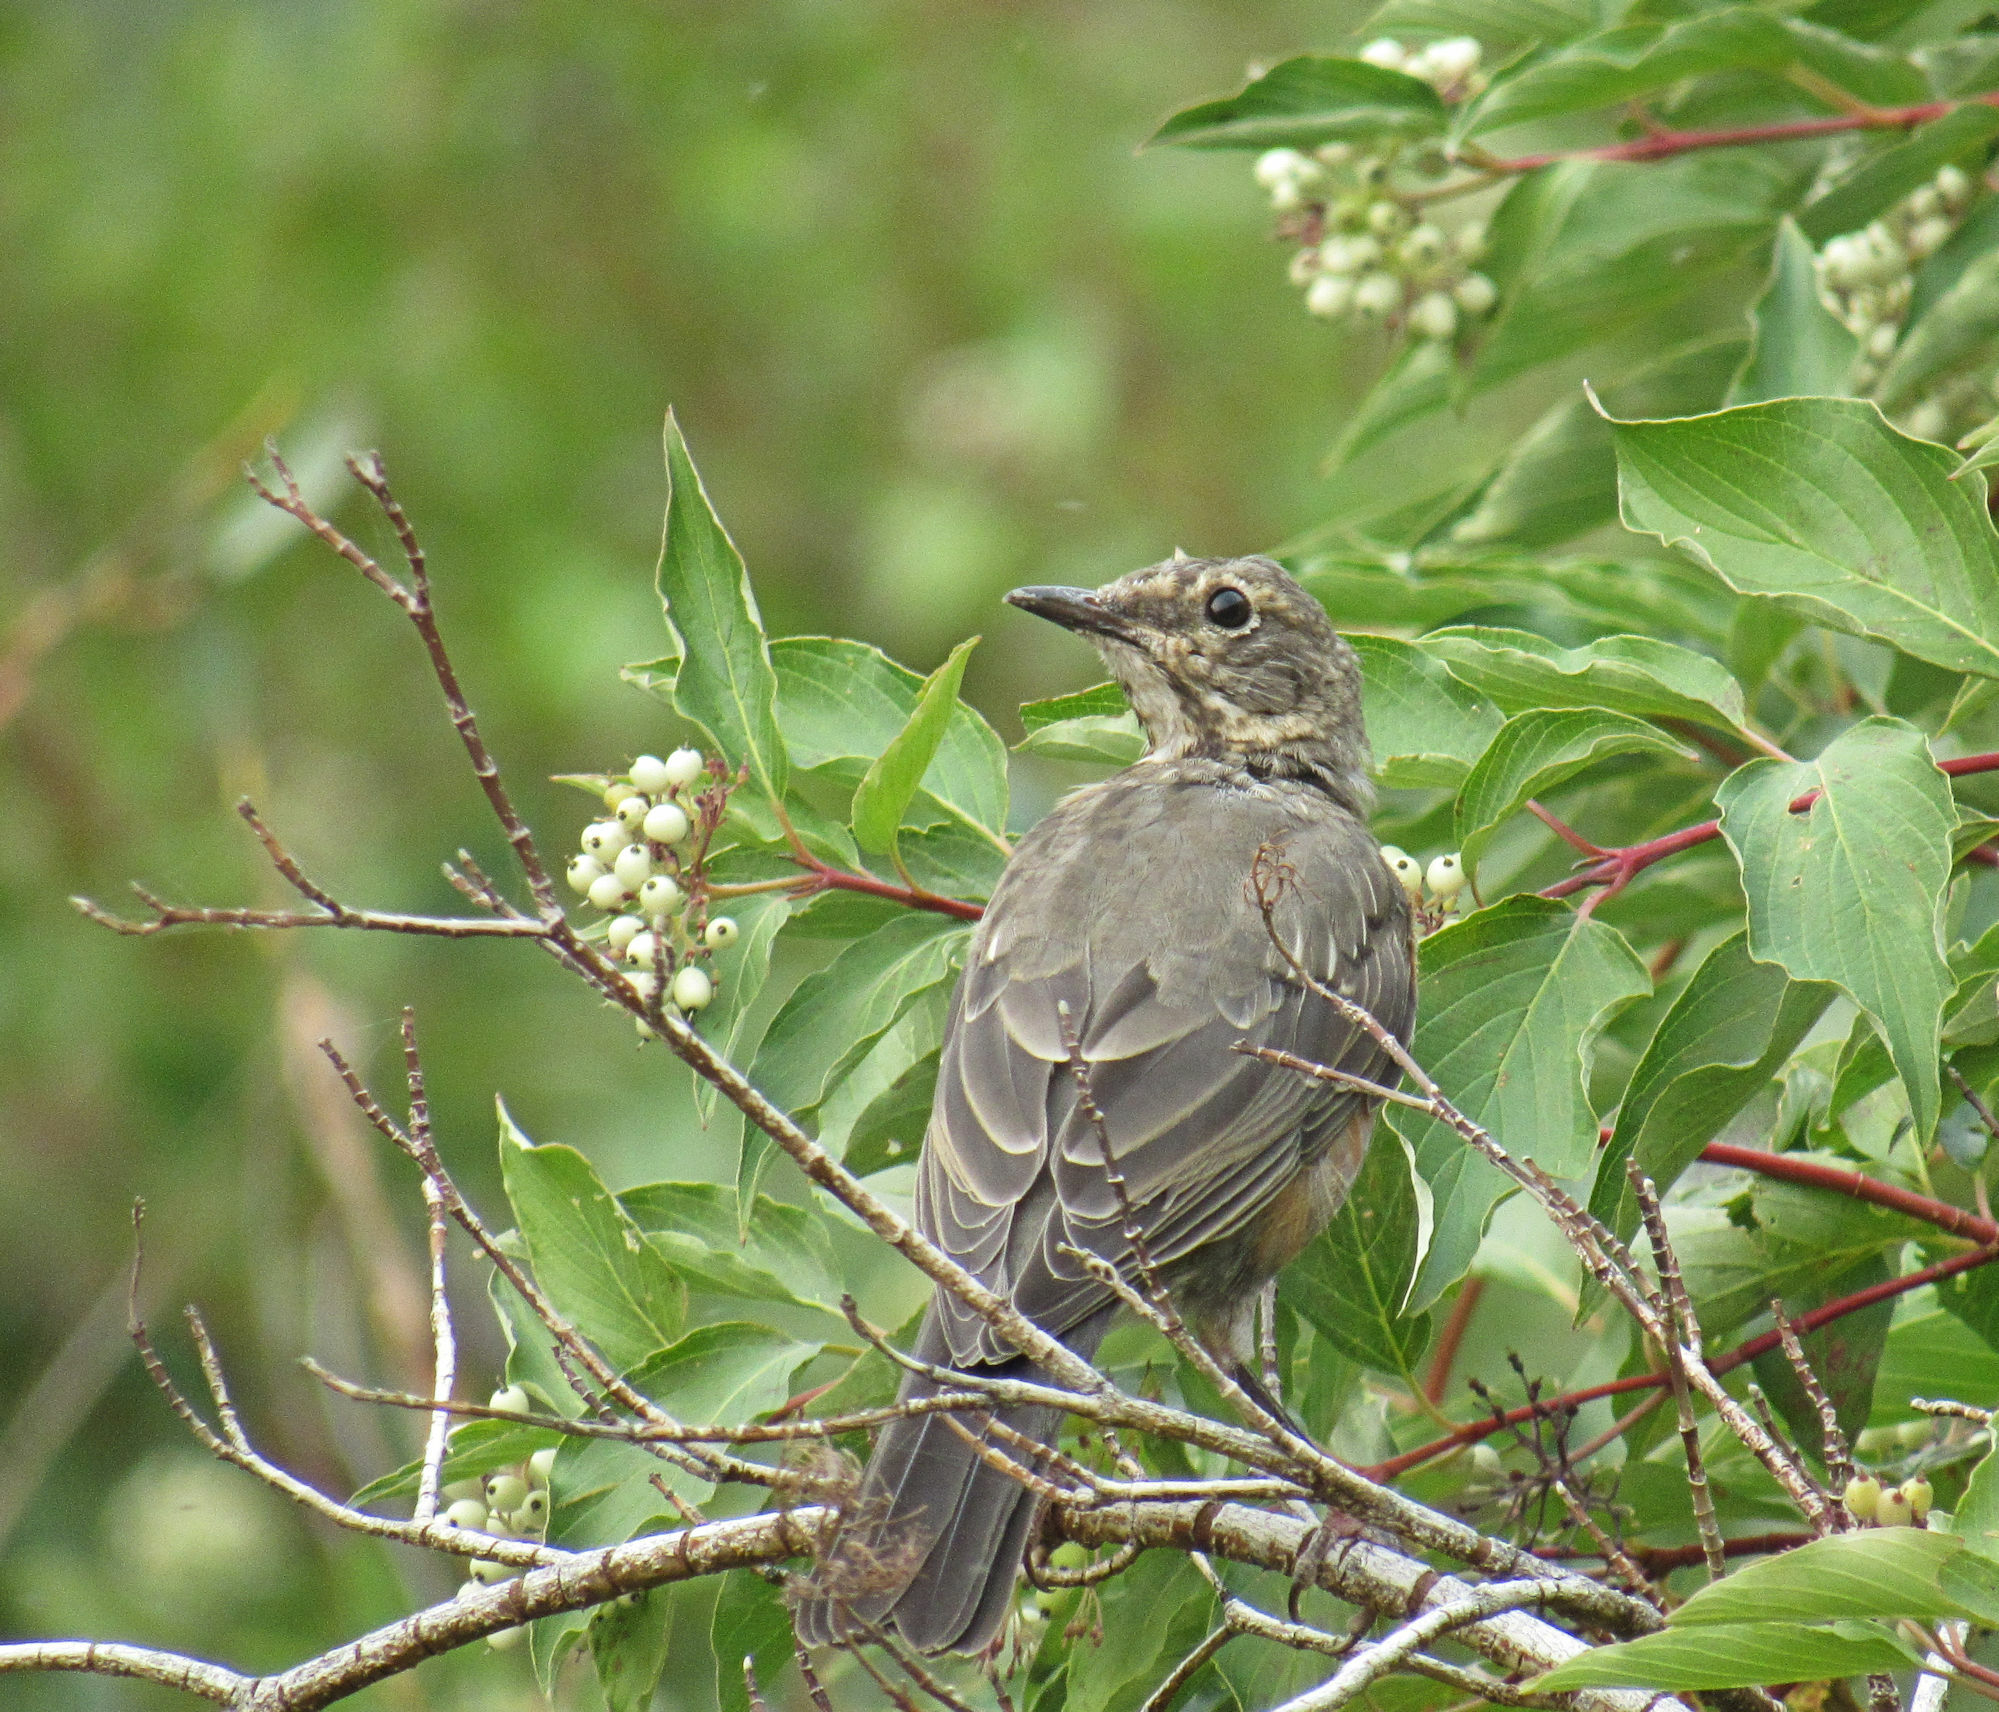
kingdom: Animalia
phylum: Chordata
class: Aves
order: Passeriformes
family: Turdidae
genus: Turdus
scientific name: Turdus migratorius
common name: American robin
